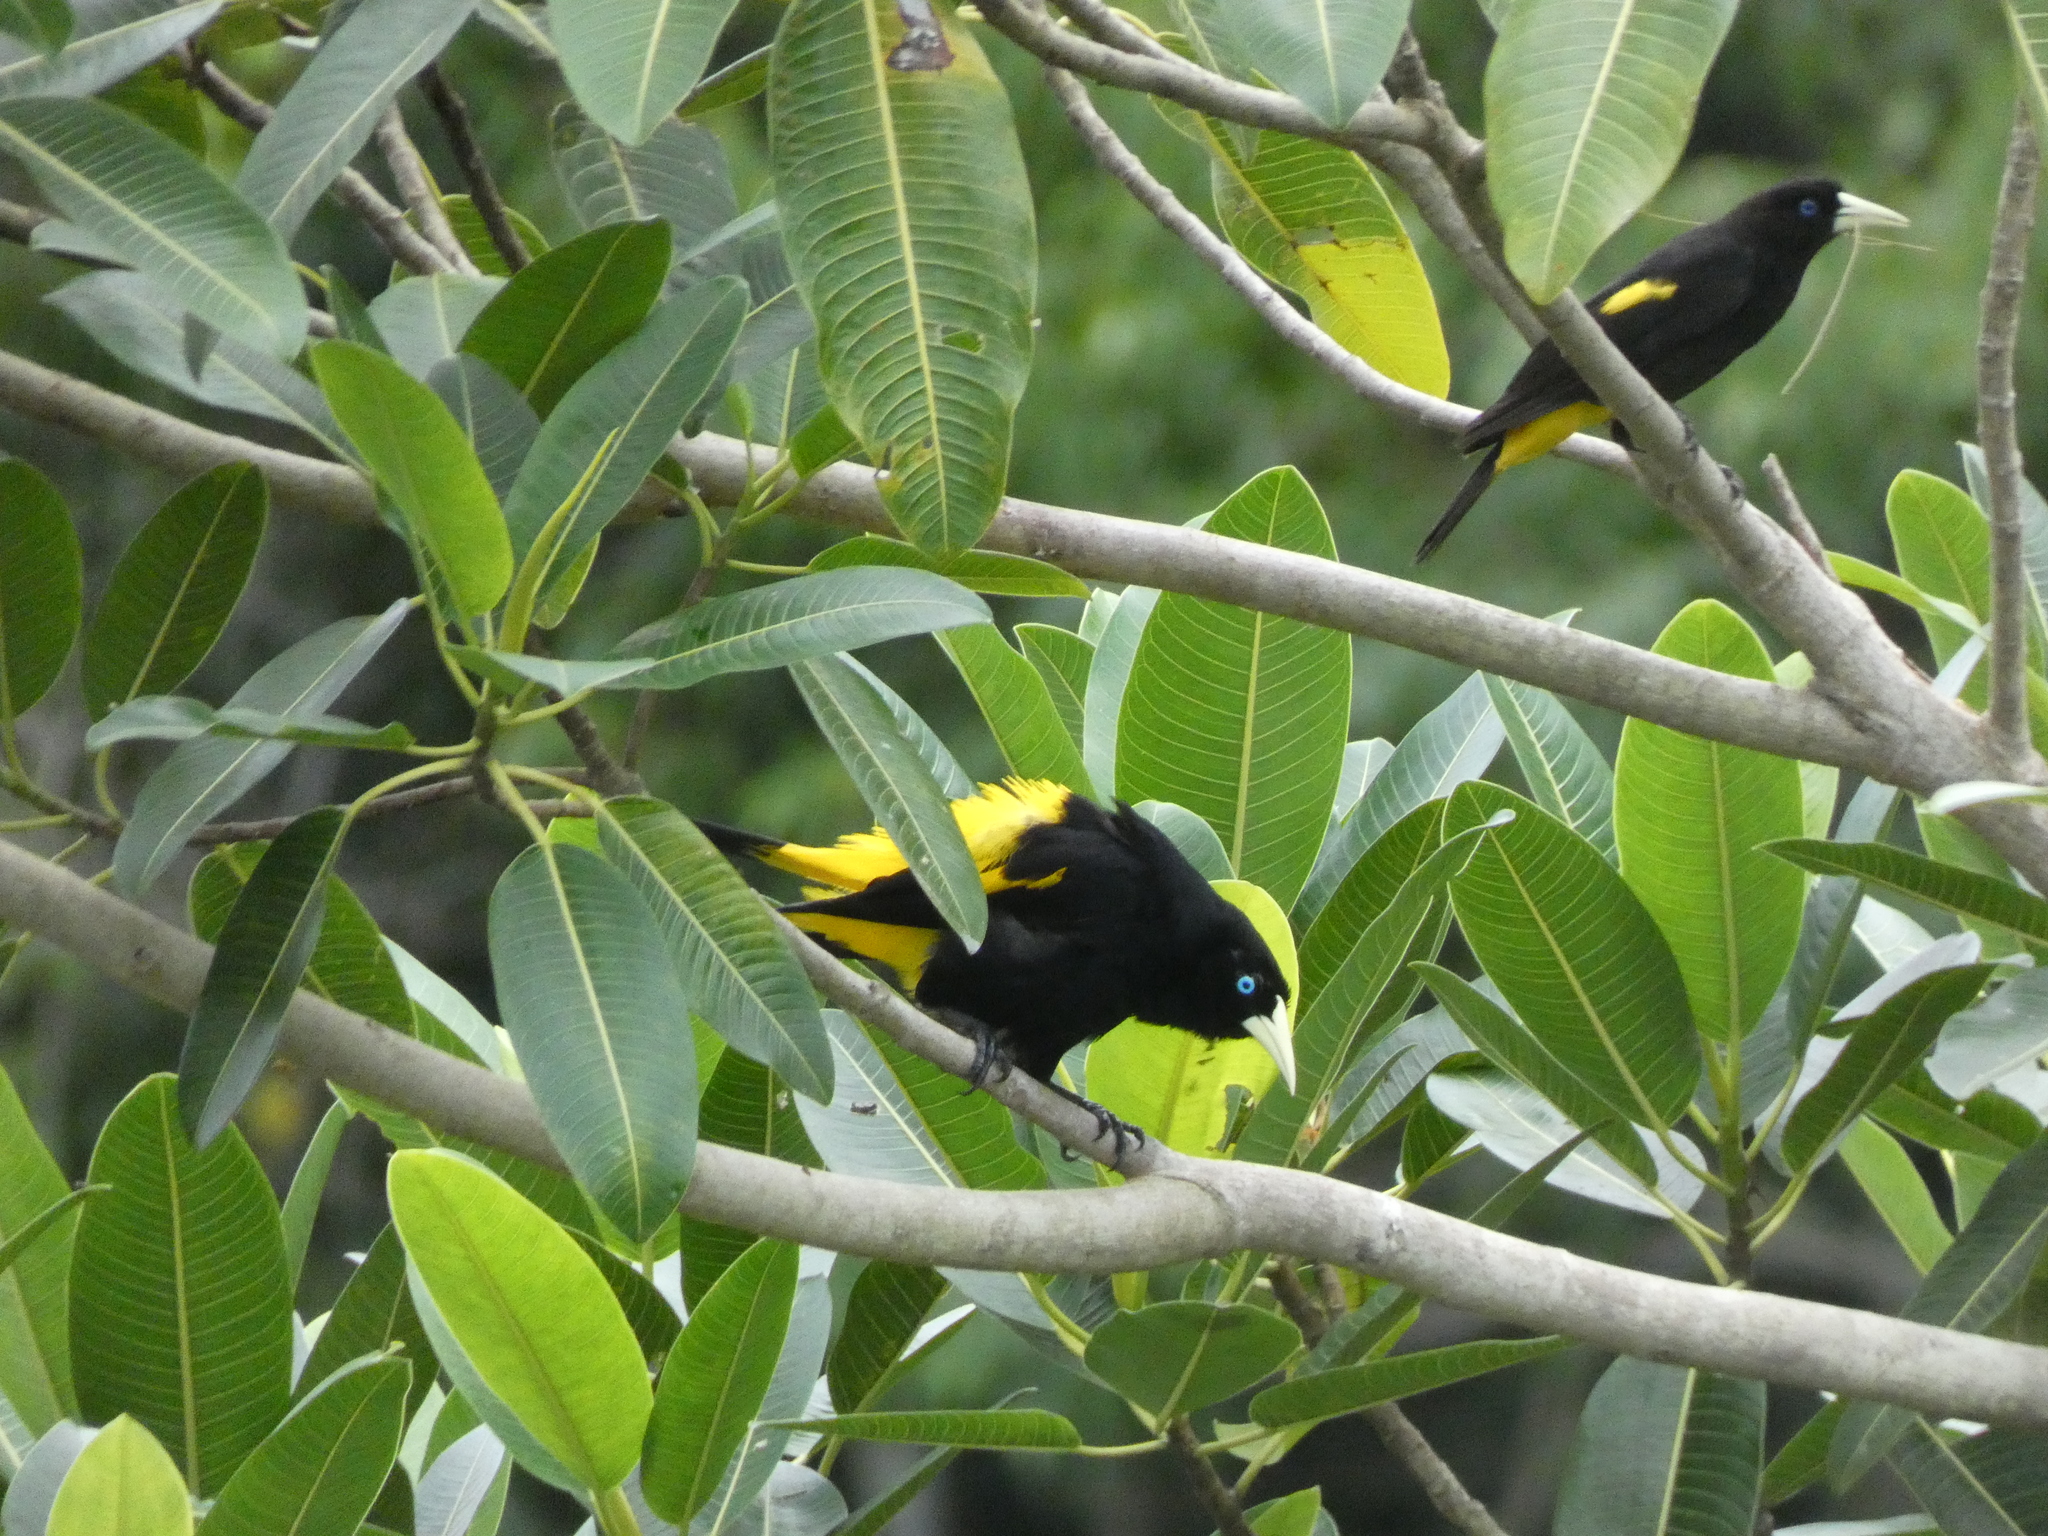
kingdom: Animalia
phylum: Chordata
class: Aves
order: Passeriformes
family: Icteridae
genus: Cacicus
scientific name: Cacicus cela
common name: Yellow-rumped cacique
